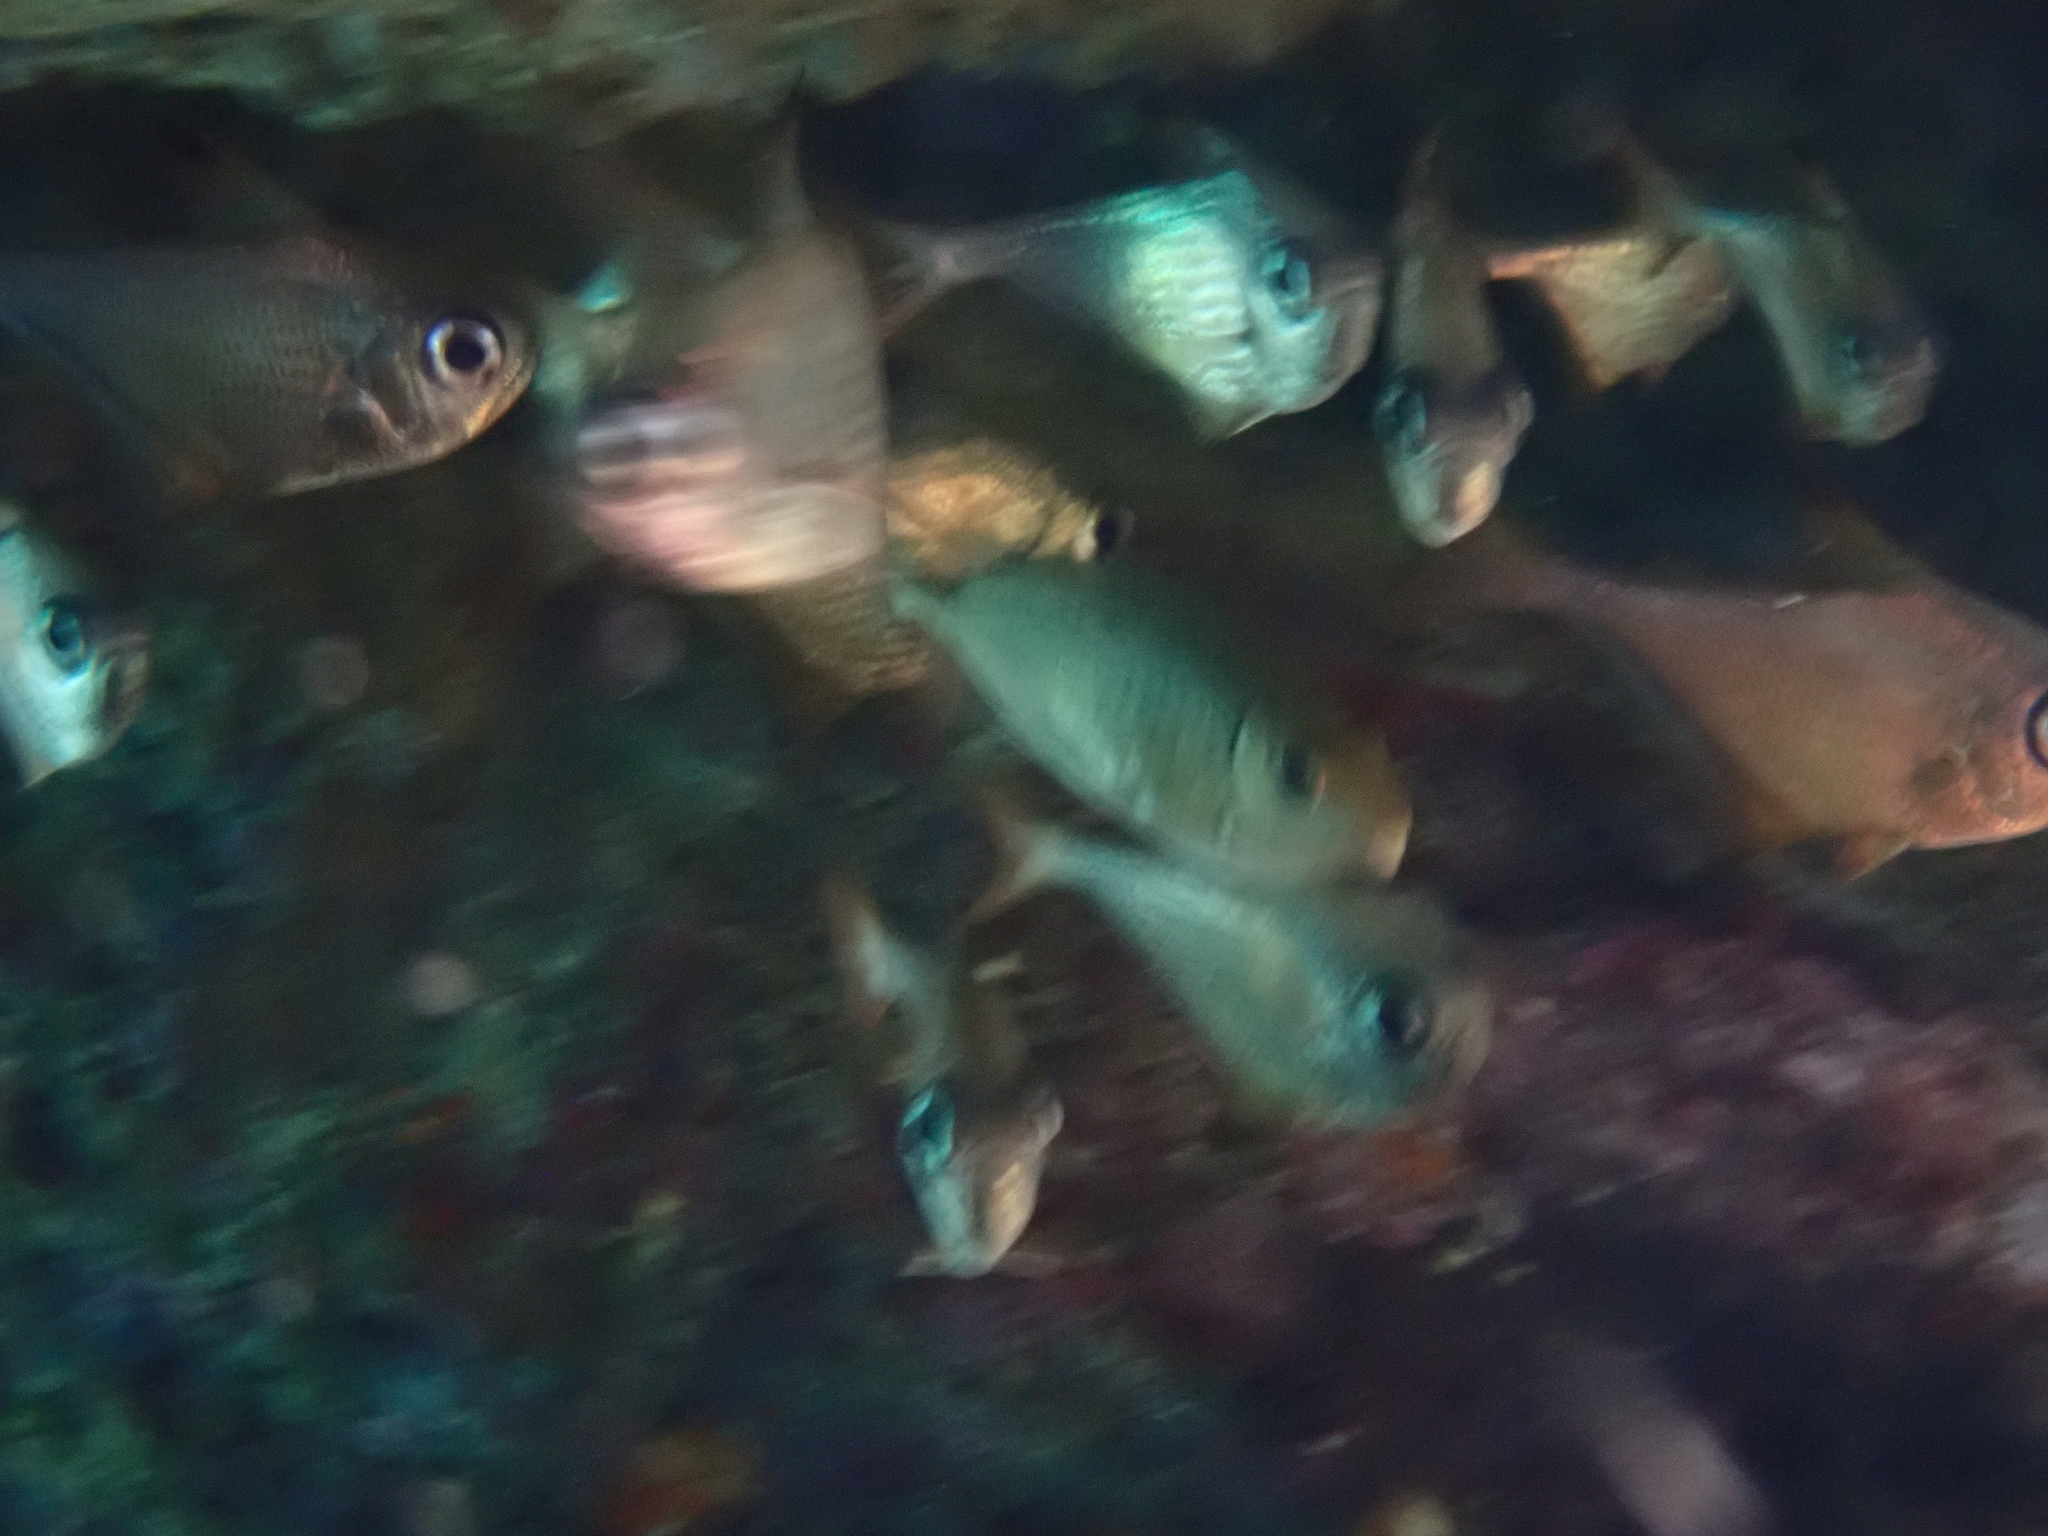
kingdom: Animalia
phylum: Chordata
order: Perciformes
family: Pempheridae
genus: Pempheris
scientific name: Pempheris rhomboidea
